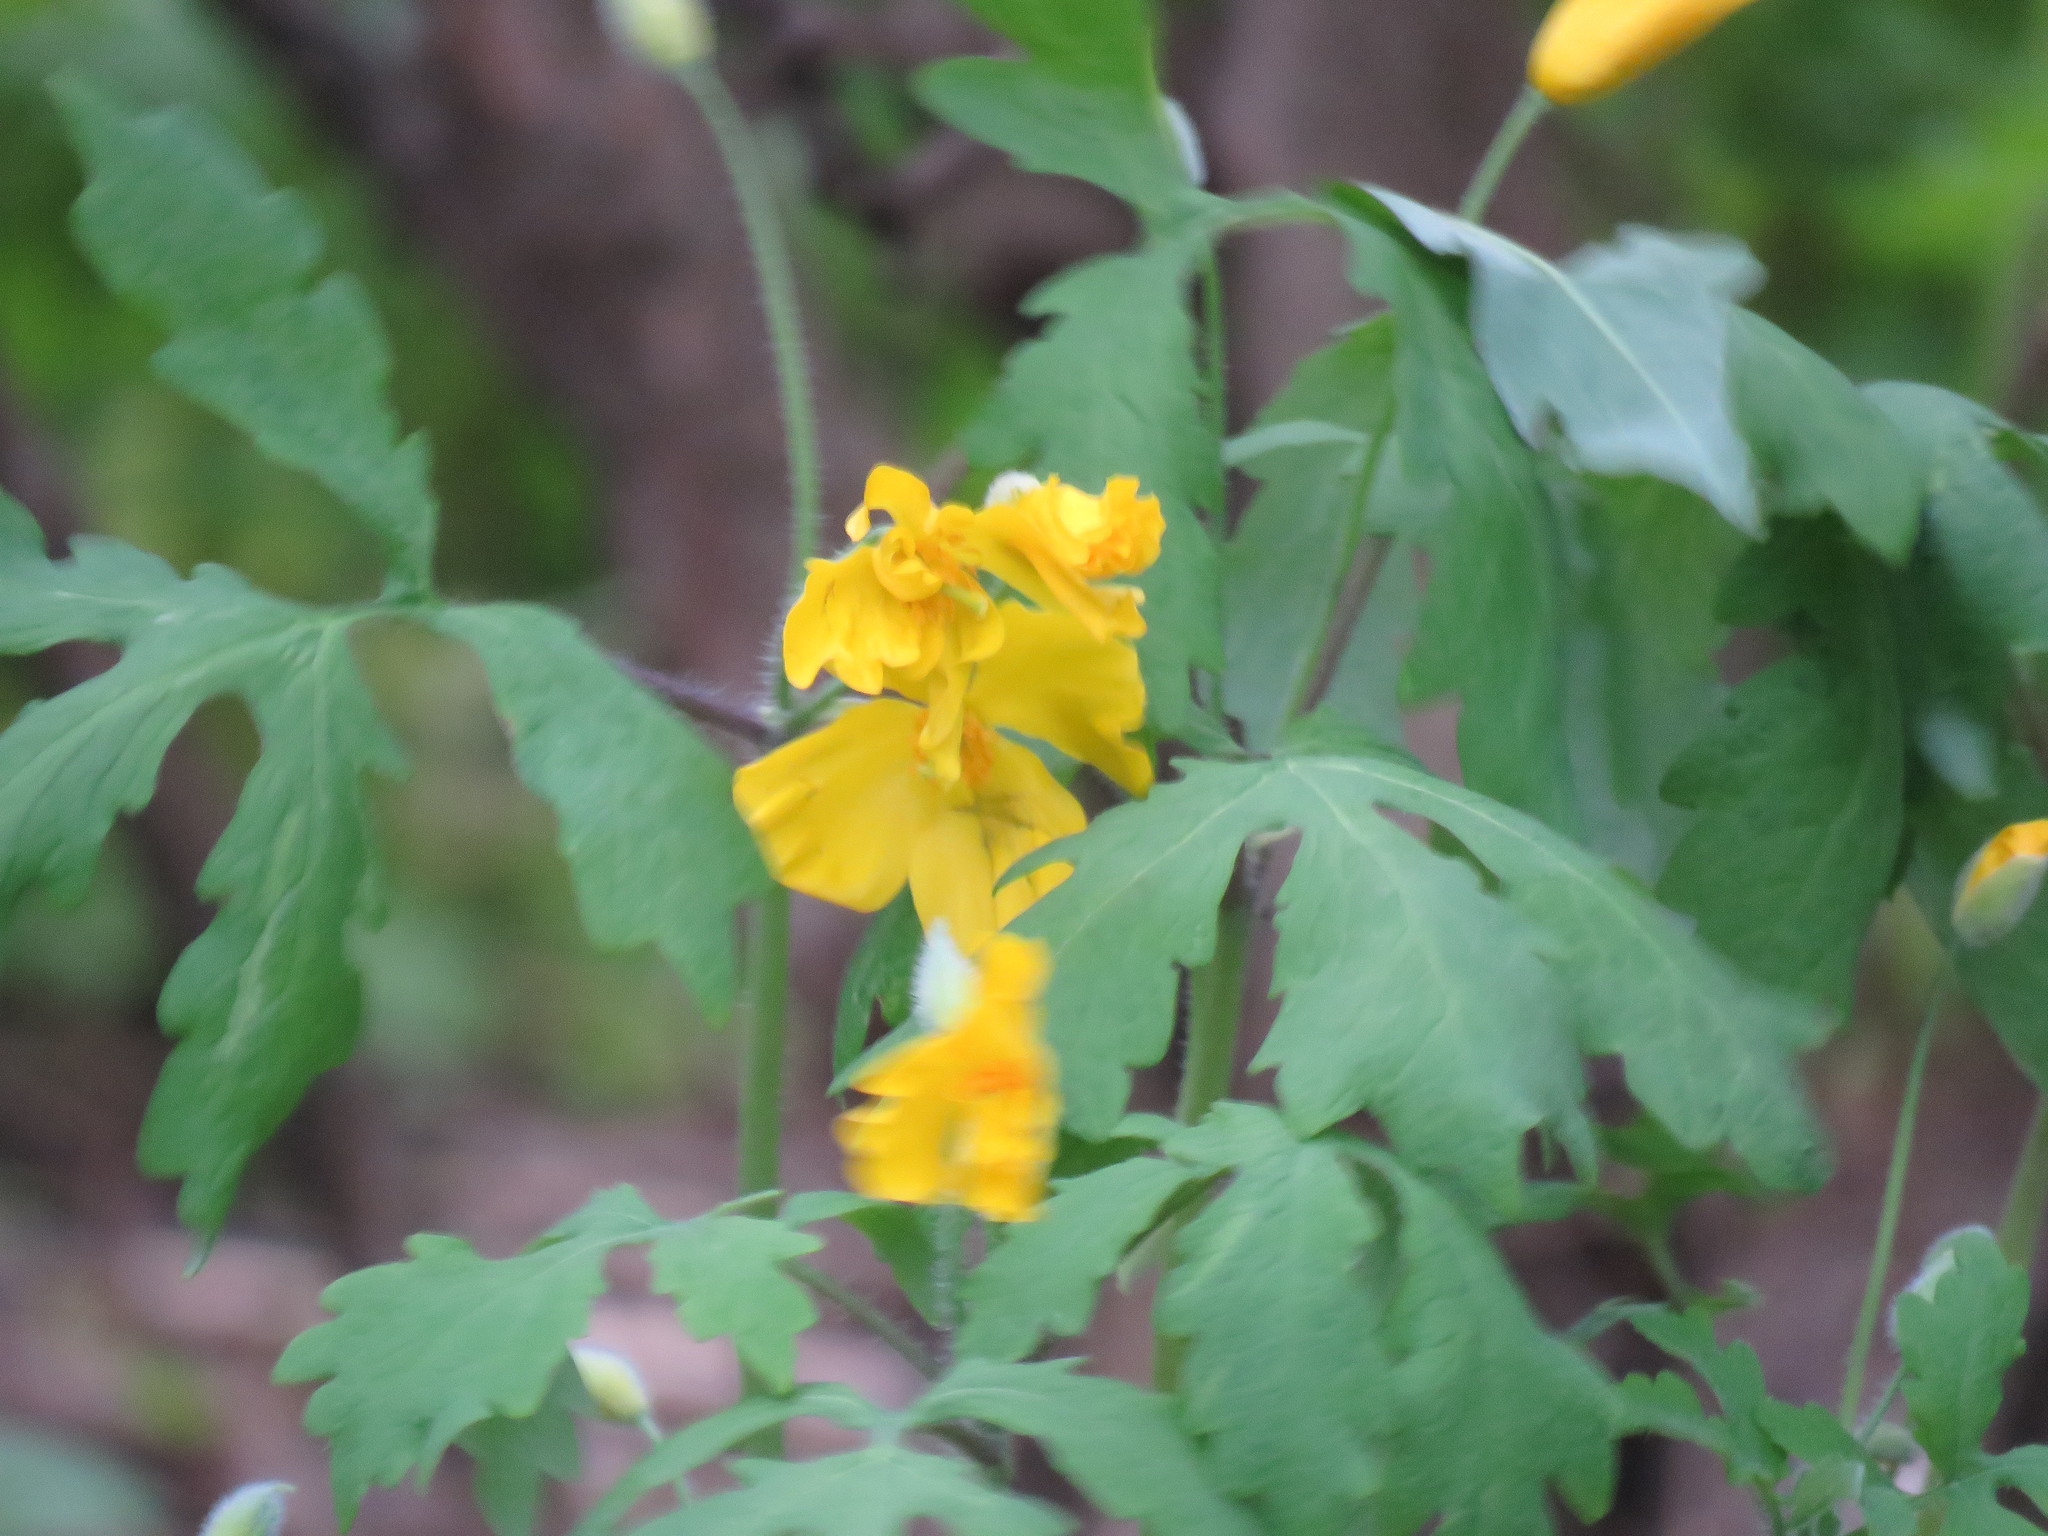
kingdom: Plantae
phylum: Tracheophyta
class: Magnoliopsida
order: Ranunculales
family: Papaveraceae
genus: Stylophorum
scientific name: Stylophorum diphyllum
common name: Celandine poppy
